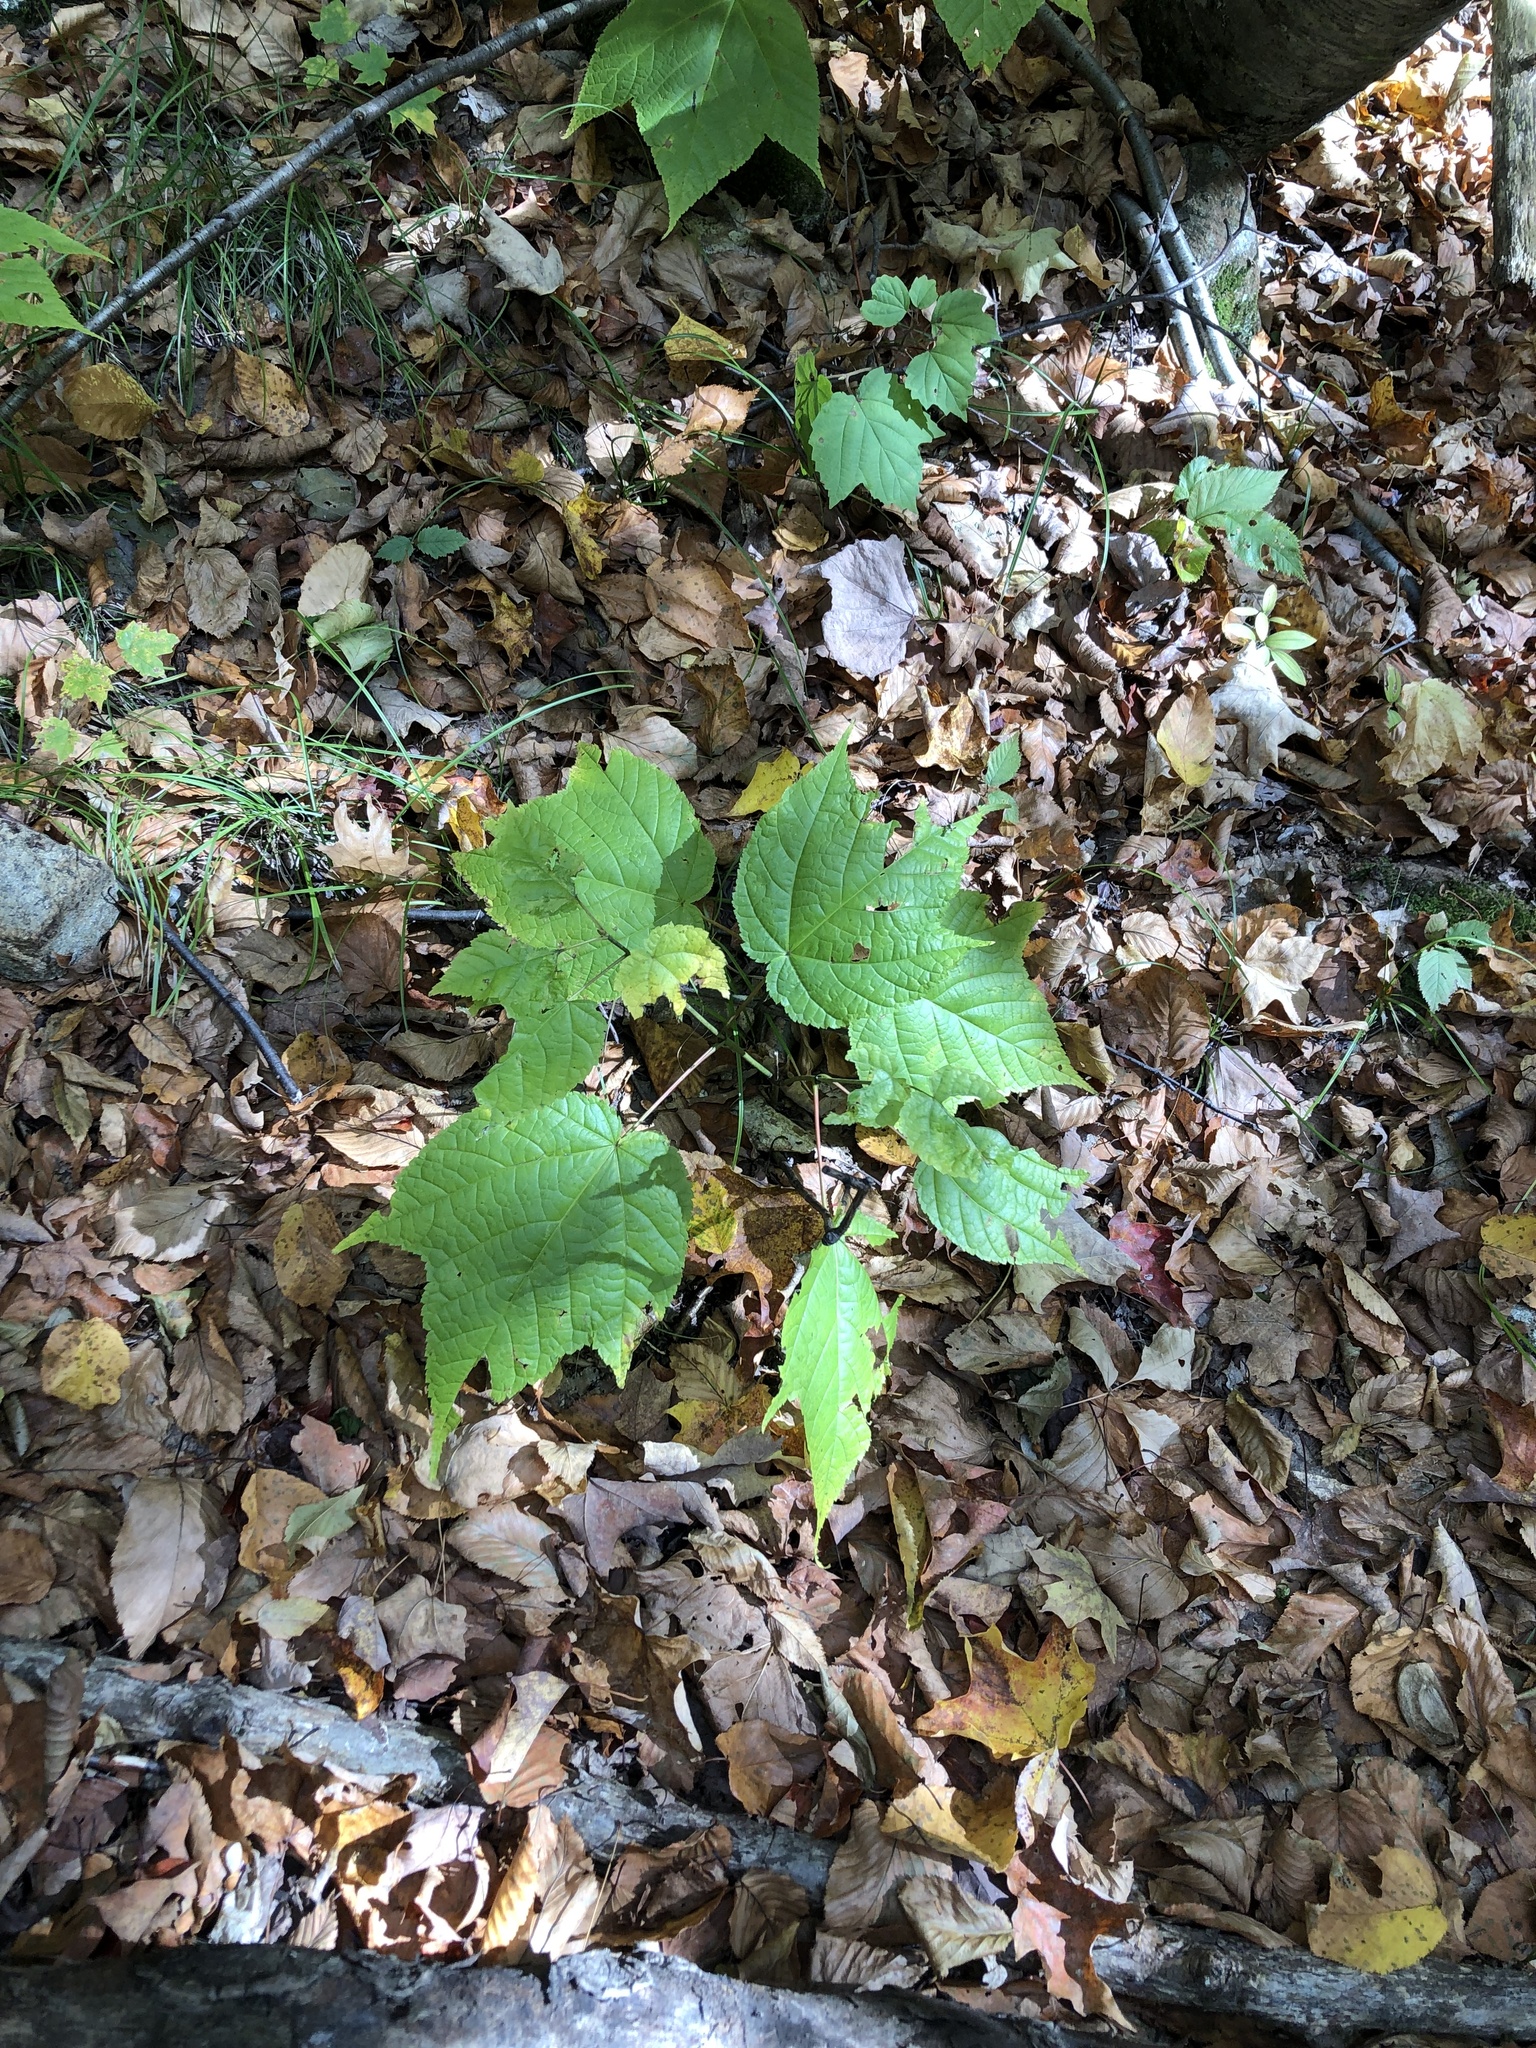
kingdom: Plantae
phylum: Tracheophyta
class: Magnoliopsida
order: Sapindales
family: Sapindaceae
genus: Acer
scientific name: Acer pensylvanicum
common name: Moosewood
